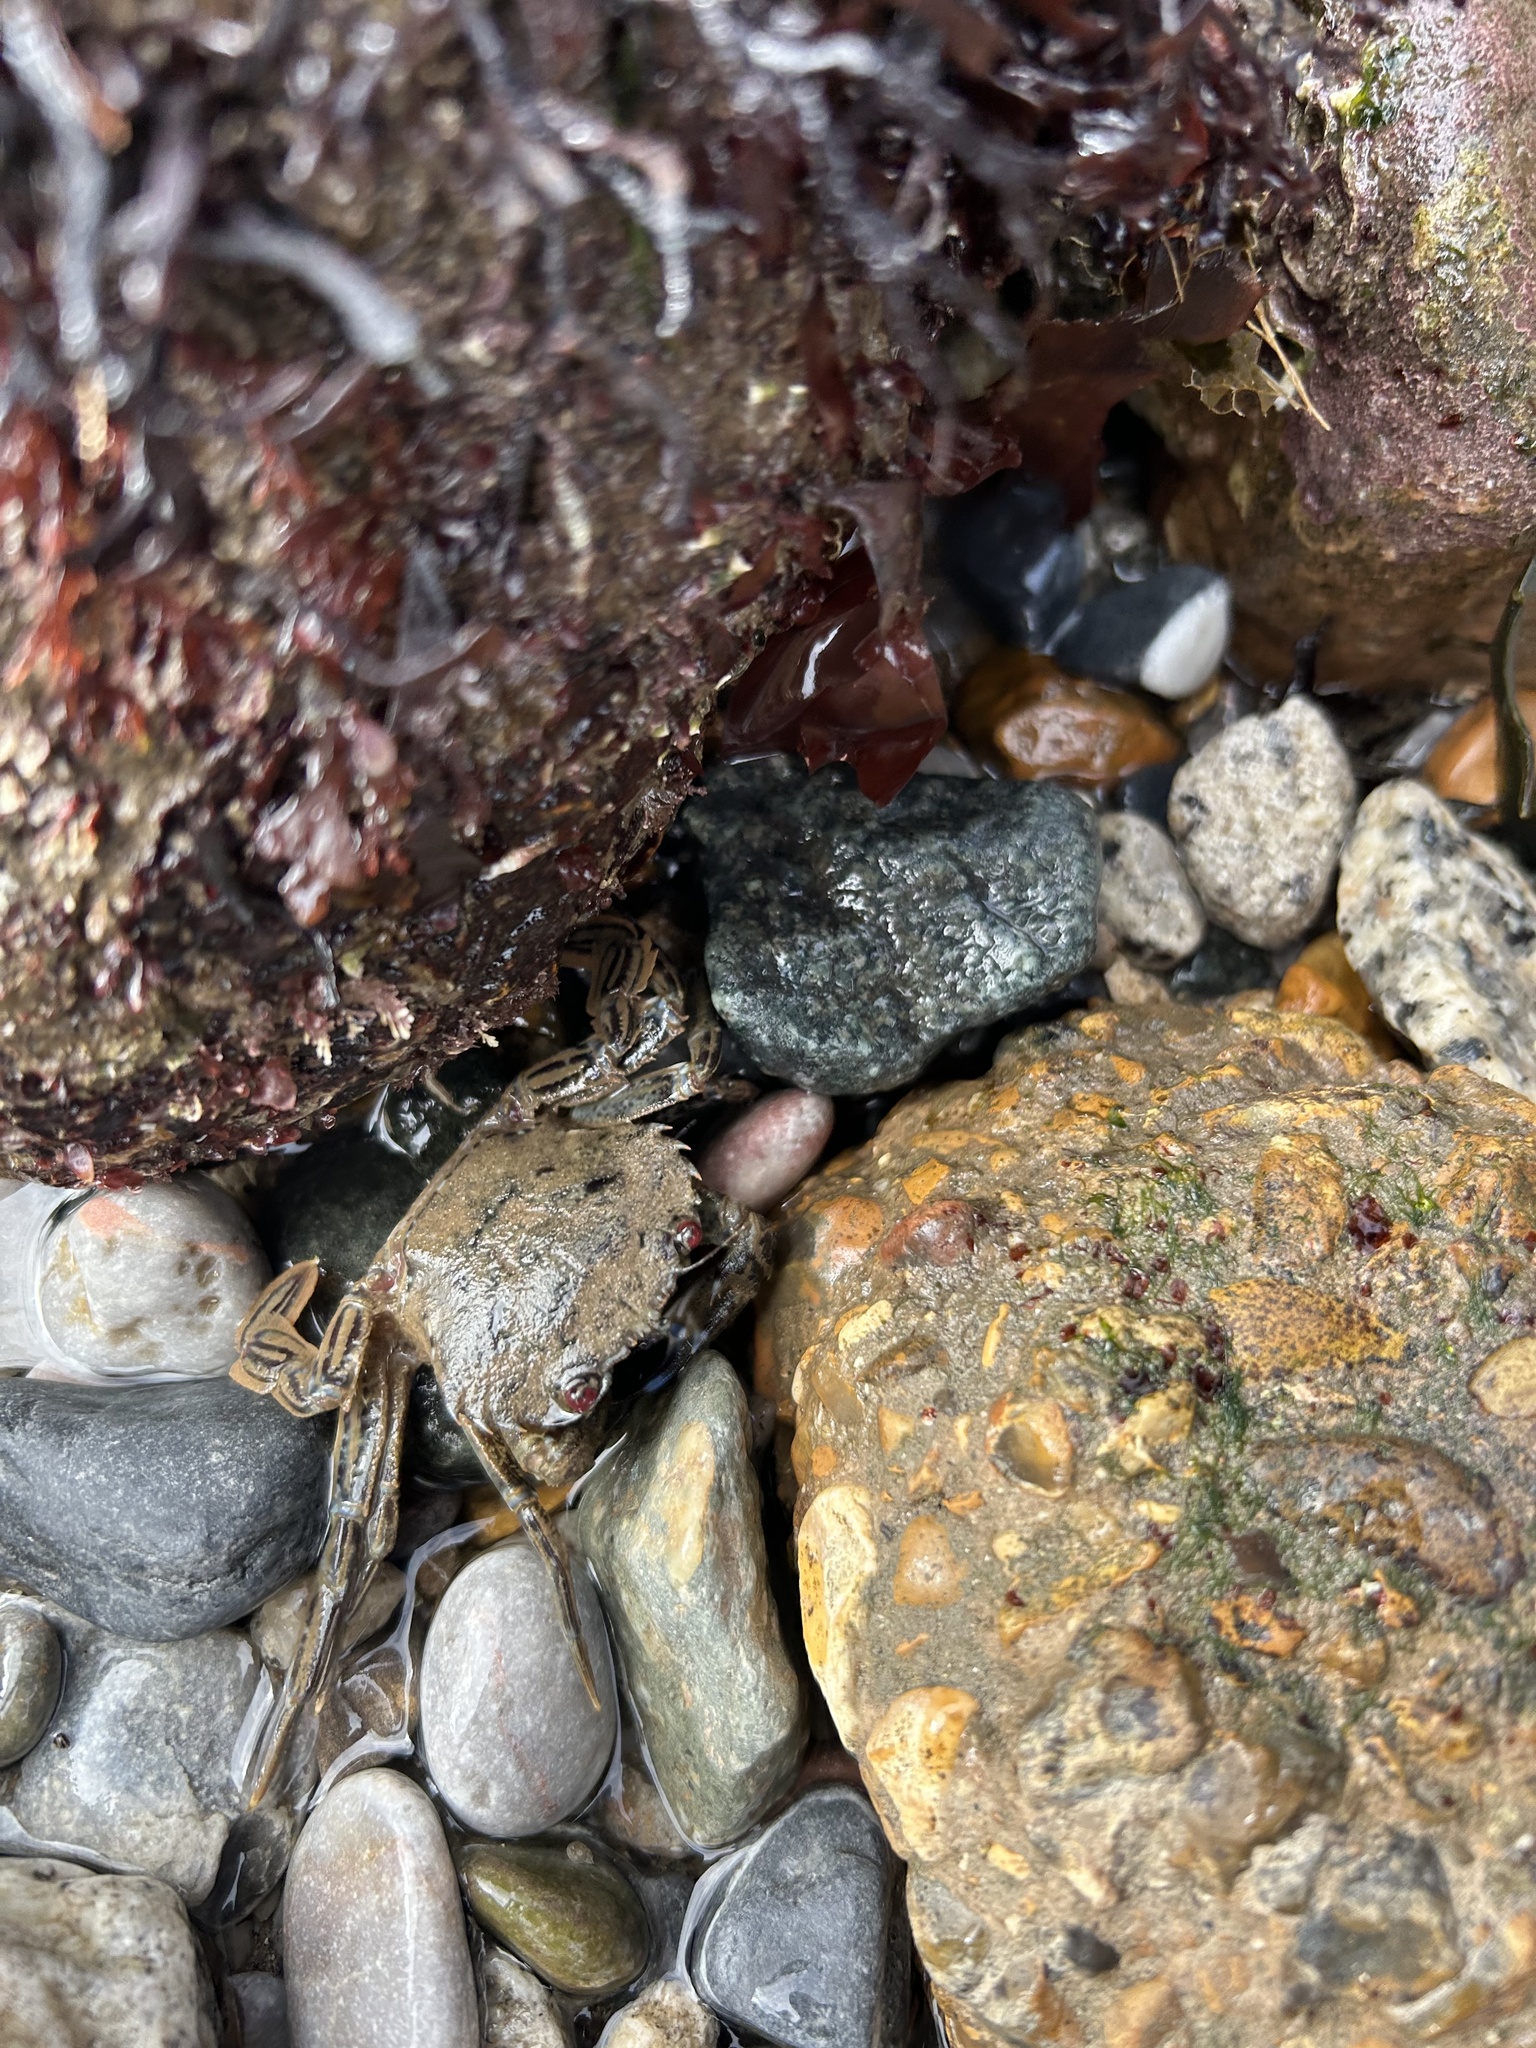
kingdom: Animalia
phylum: Arthropoda
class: Malacostraca
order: Decapoda
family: Polybiidae
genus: Necora
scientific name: Necora puber
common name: Velvet swimming crab
